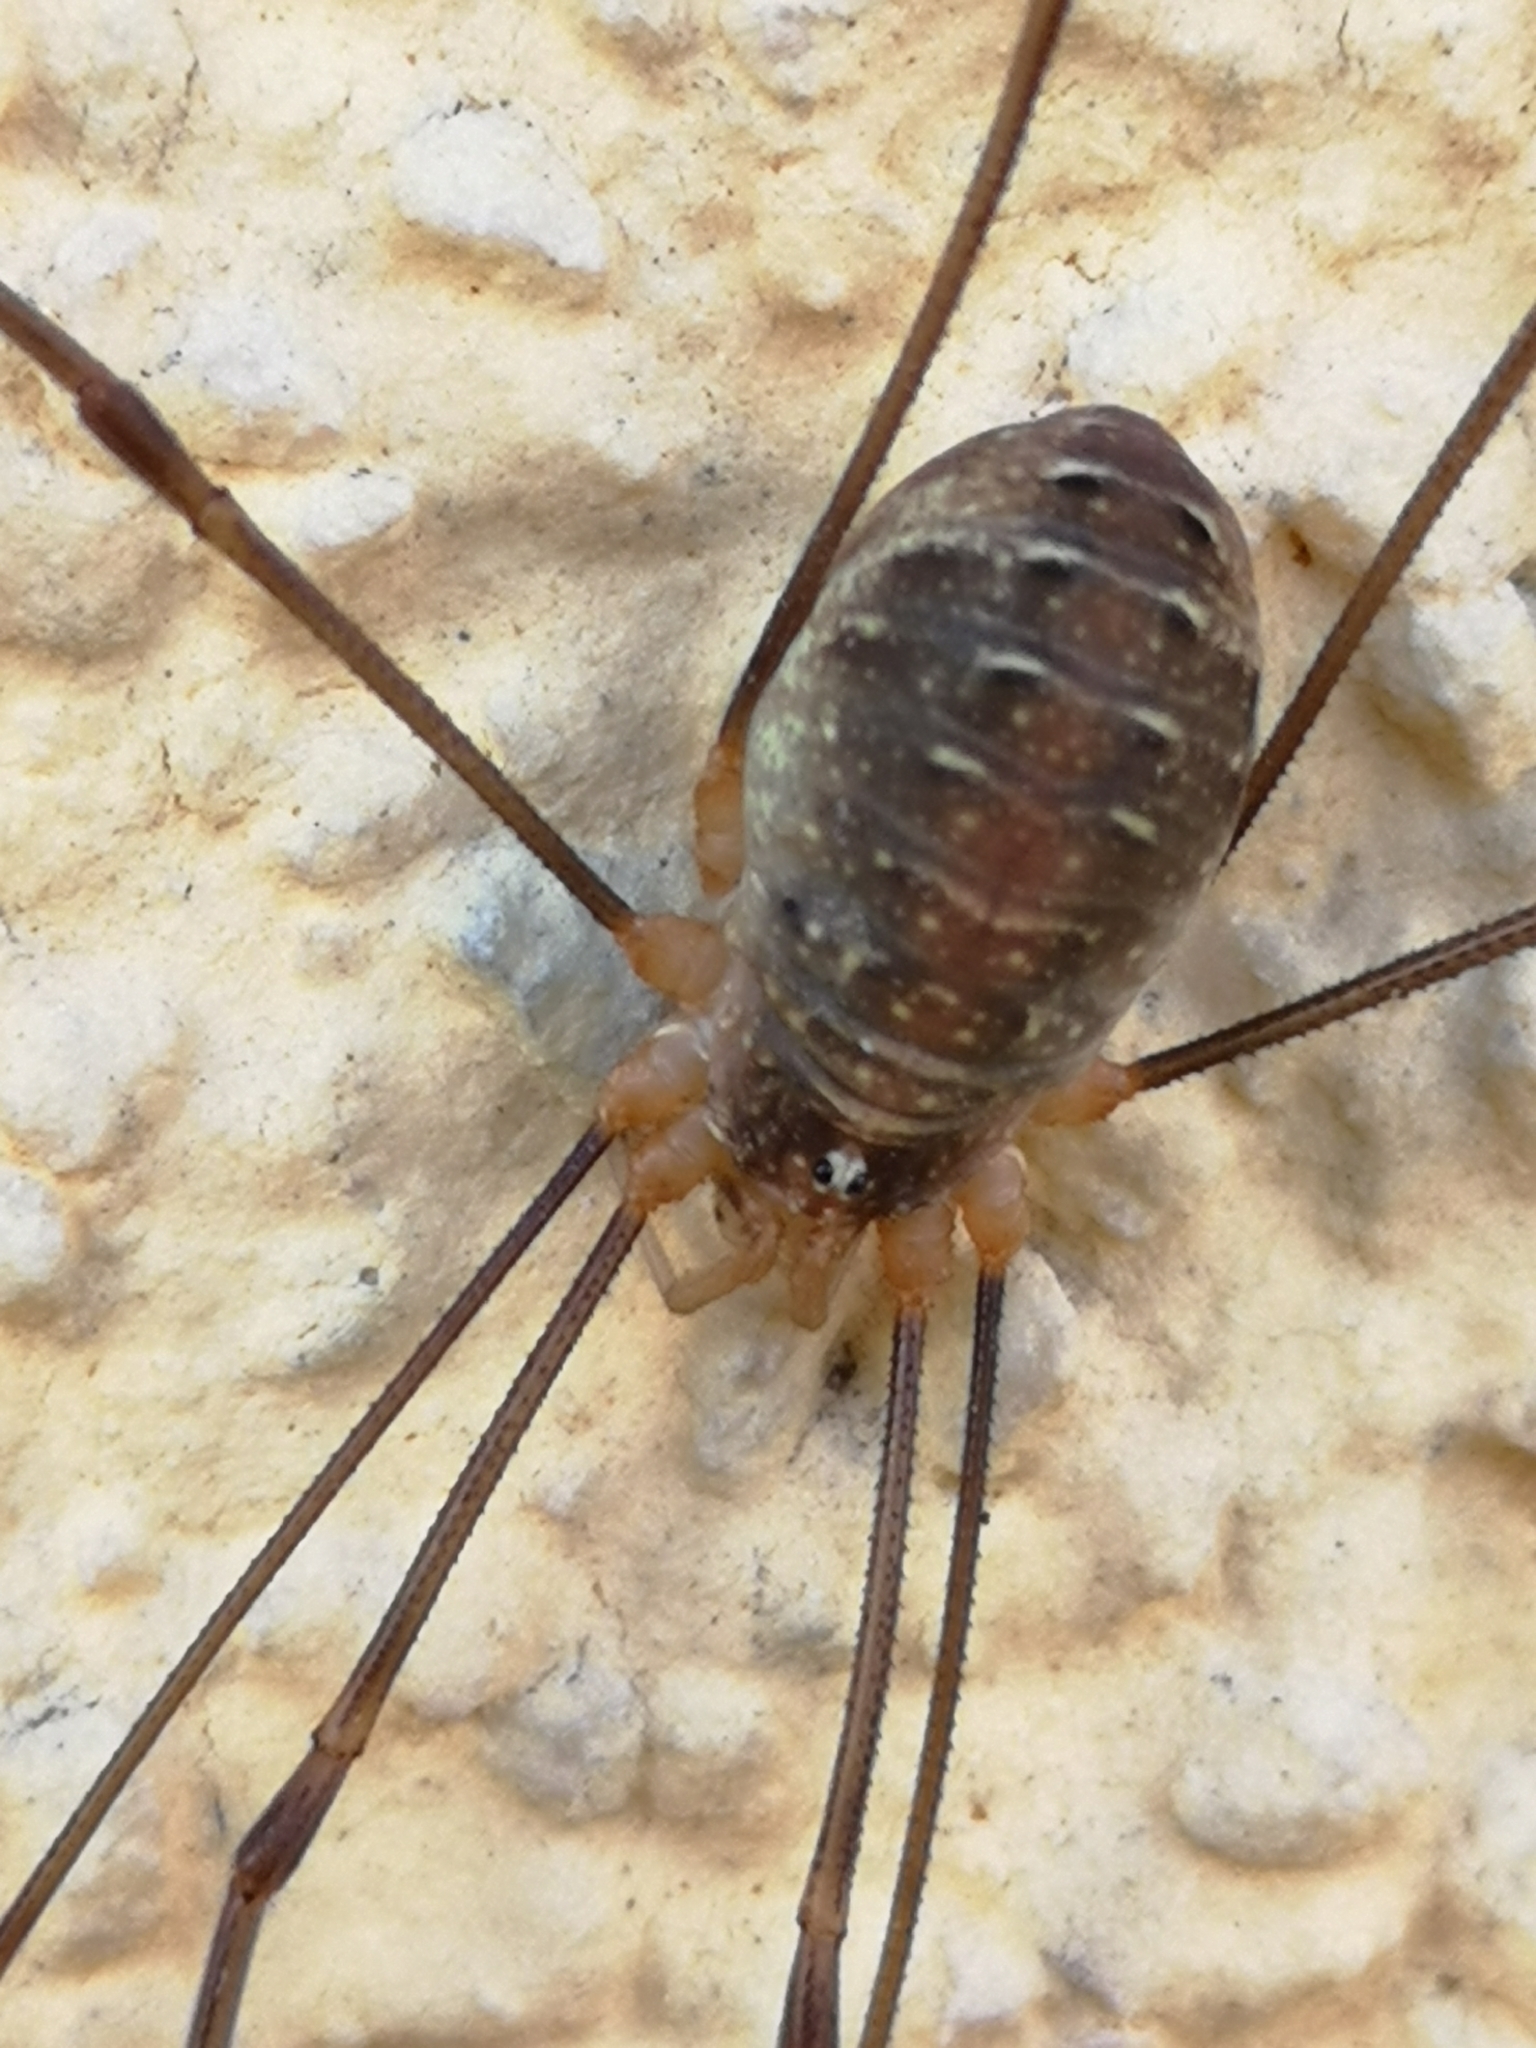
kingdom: Animalia
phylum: Arthropoda
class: Arachnida
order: Opiliones
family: Phalangiidae
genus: Opilio
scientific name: Opilio canestrinii
